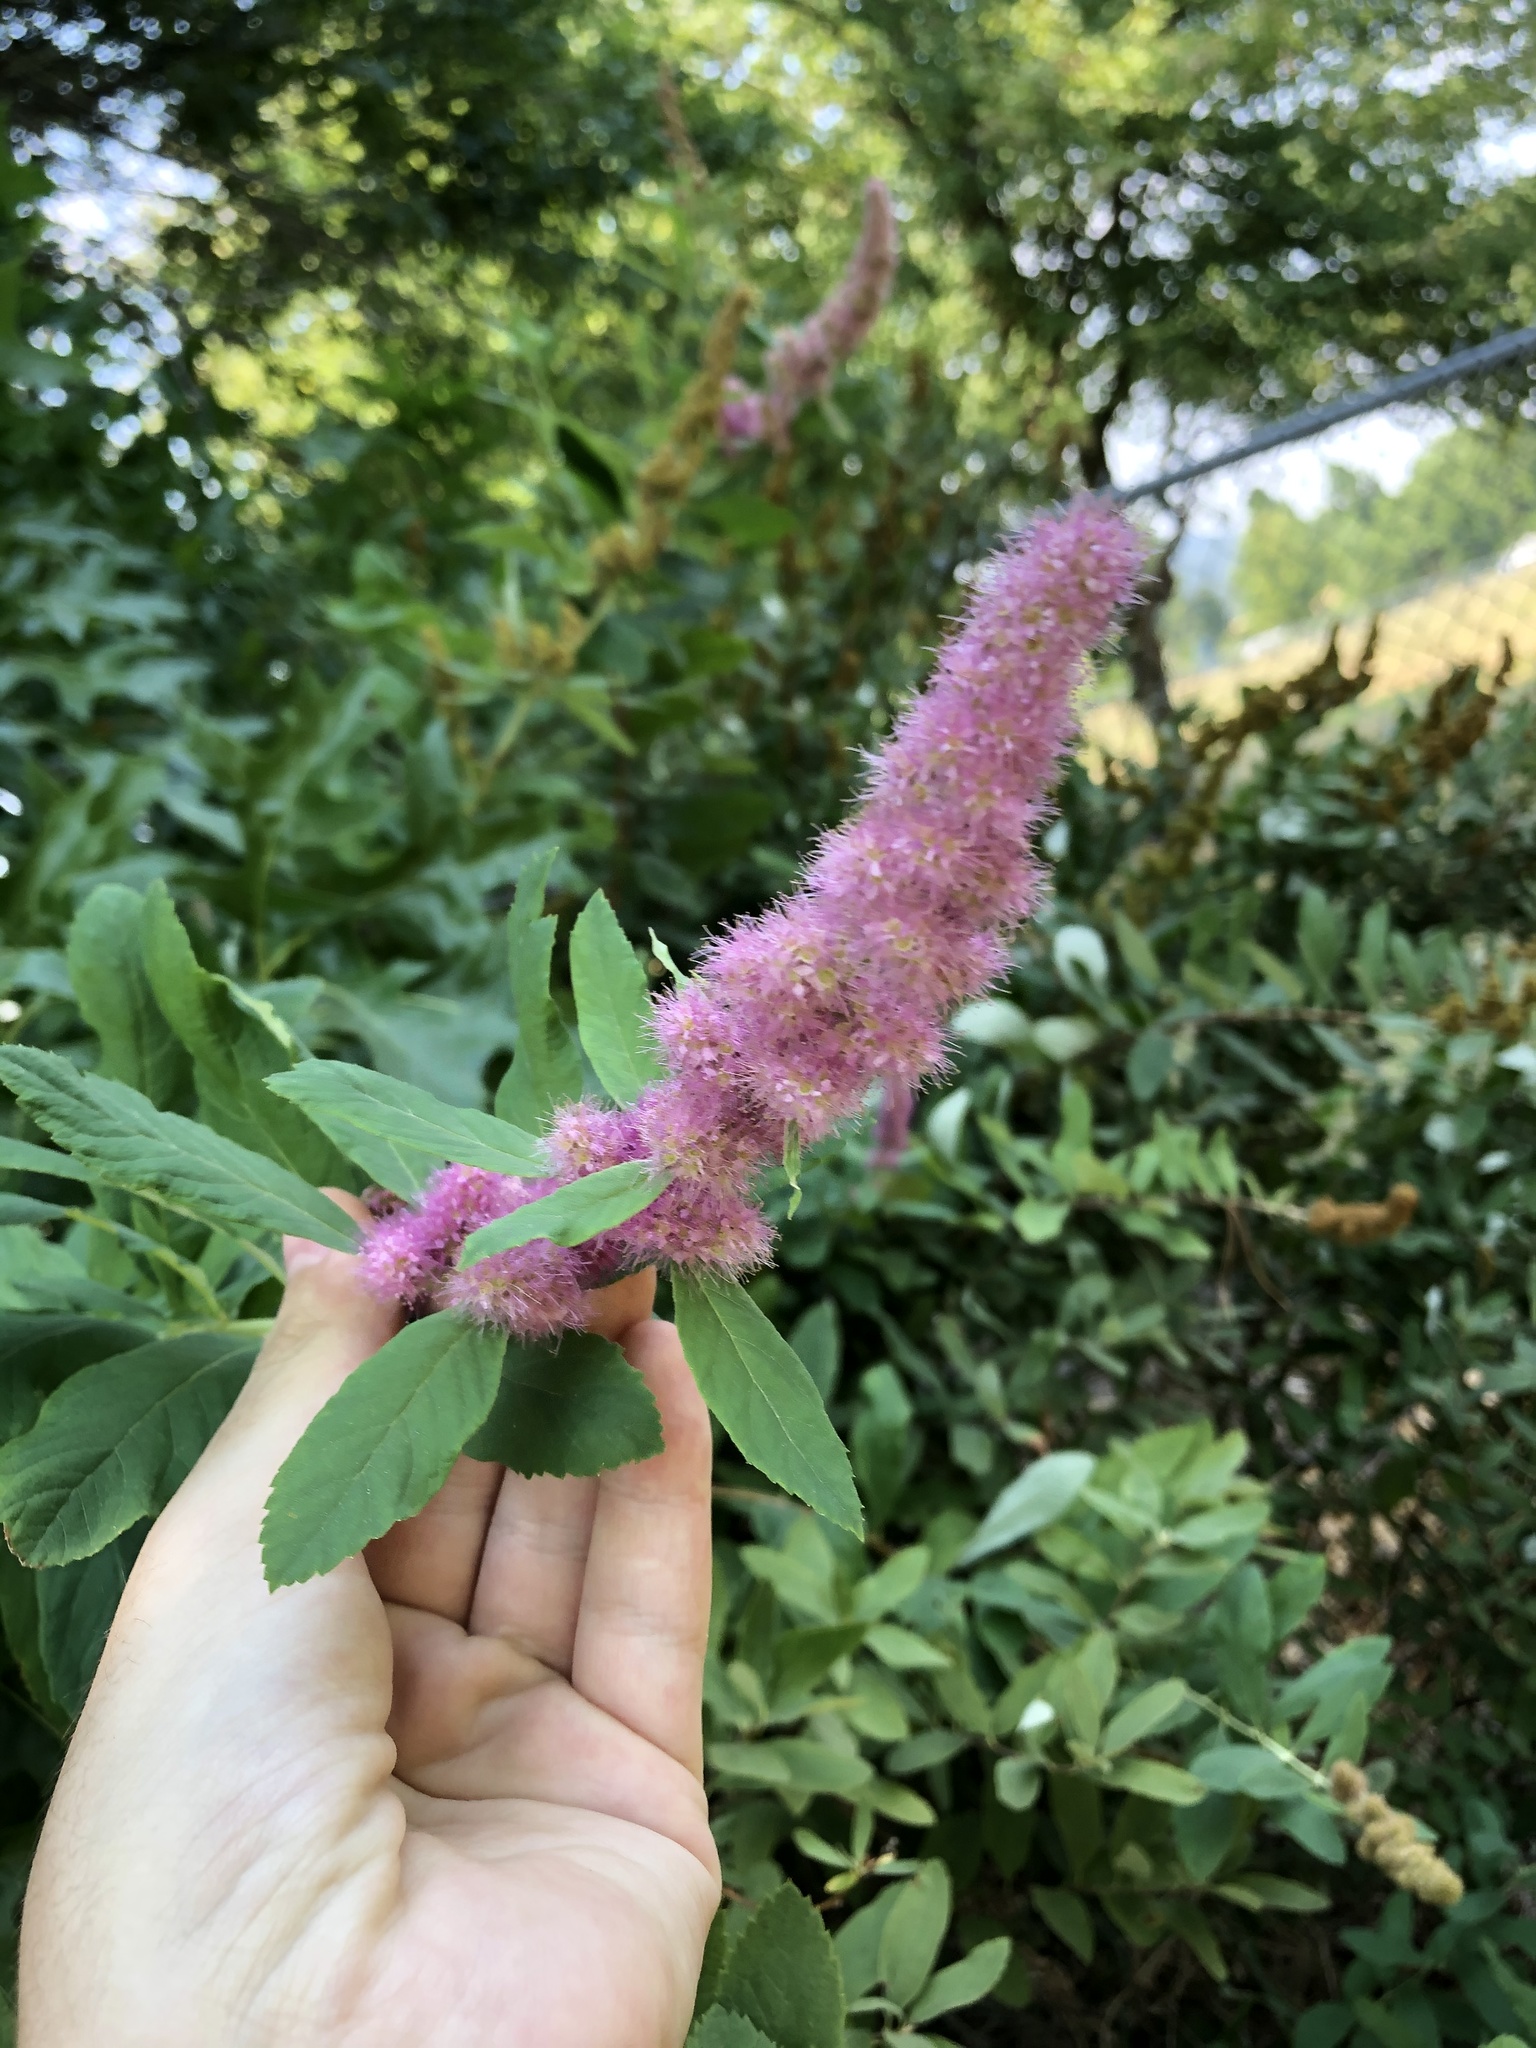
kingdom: Plantae
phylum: Tracheophyta
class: Magnoliopsida
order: Rosales
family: Rosaceae
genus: Spiraea
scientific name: Spiraea douglasii
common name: Steeplebush
